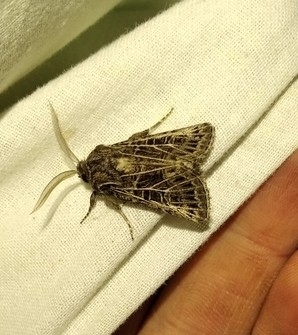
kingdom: Animalia
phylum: Arthropoda
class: Insecta
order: Lepidoptera
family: Noctuidae
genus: Tholera
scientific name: Tholera decimalis
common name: Feathered gothic
